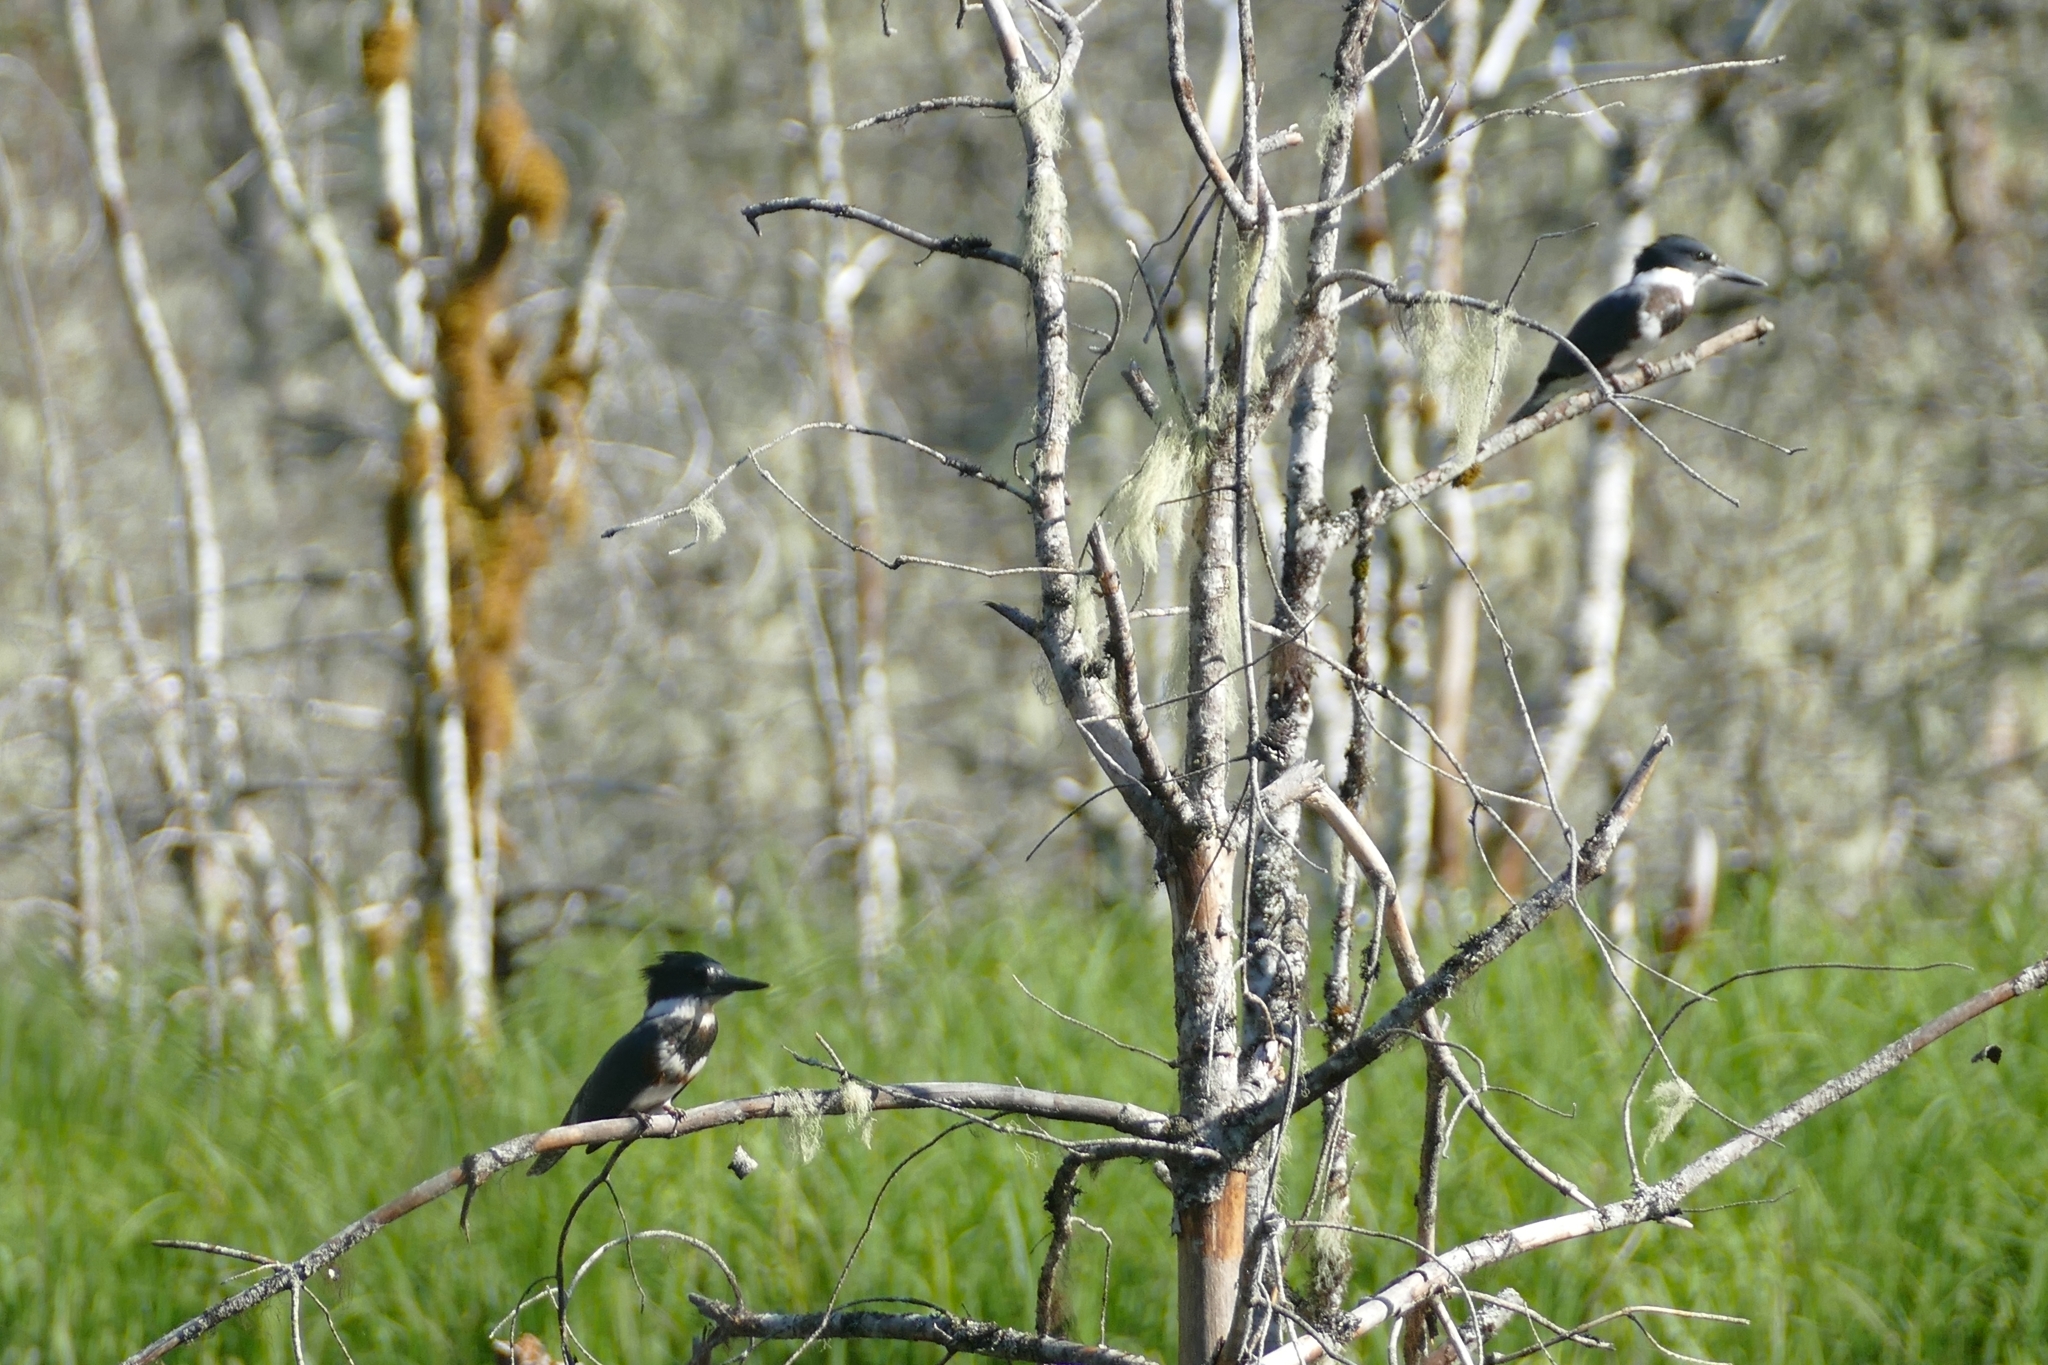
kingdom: Animalia
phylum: Chordata
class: Aves
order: Coraciiformes
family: Alcedinidae
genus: Megaceryle
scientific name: Megaceryle alcyon
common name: Belted kingfisher
